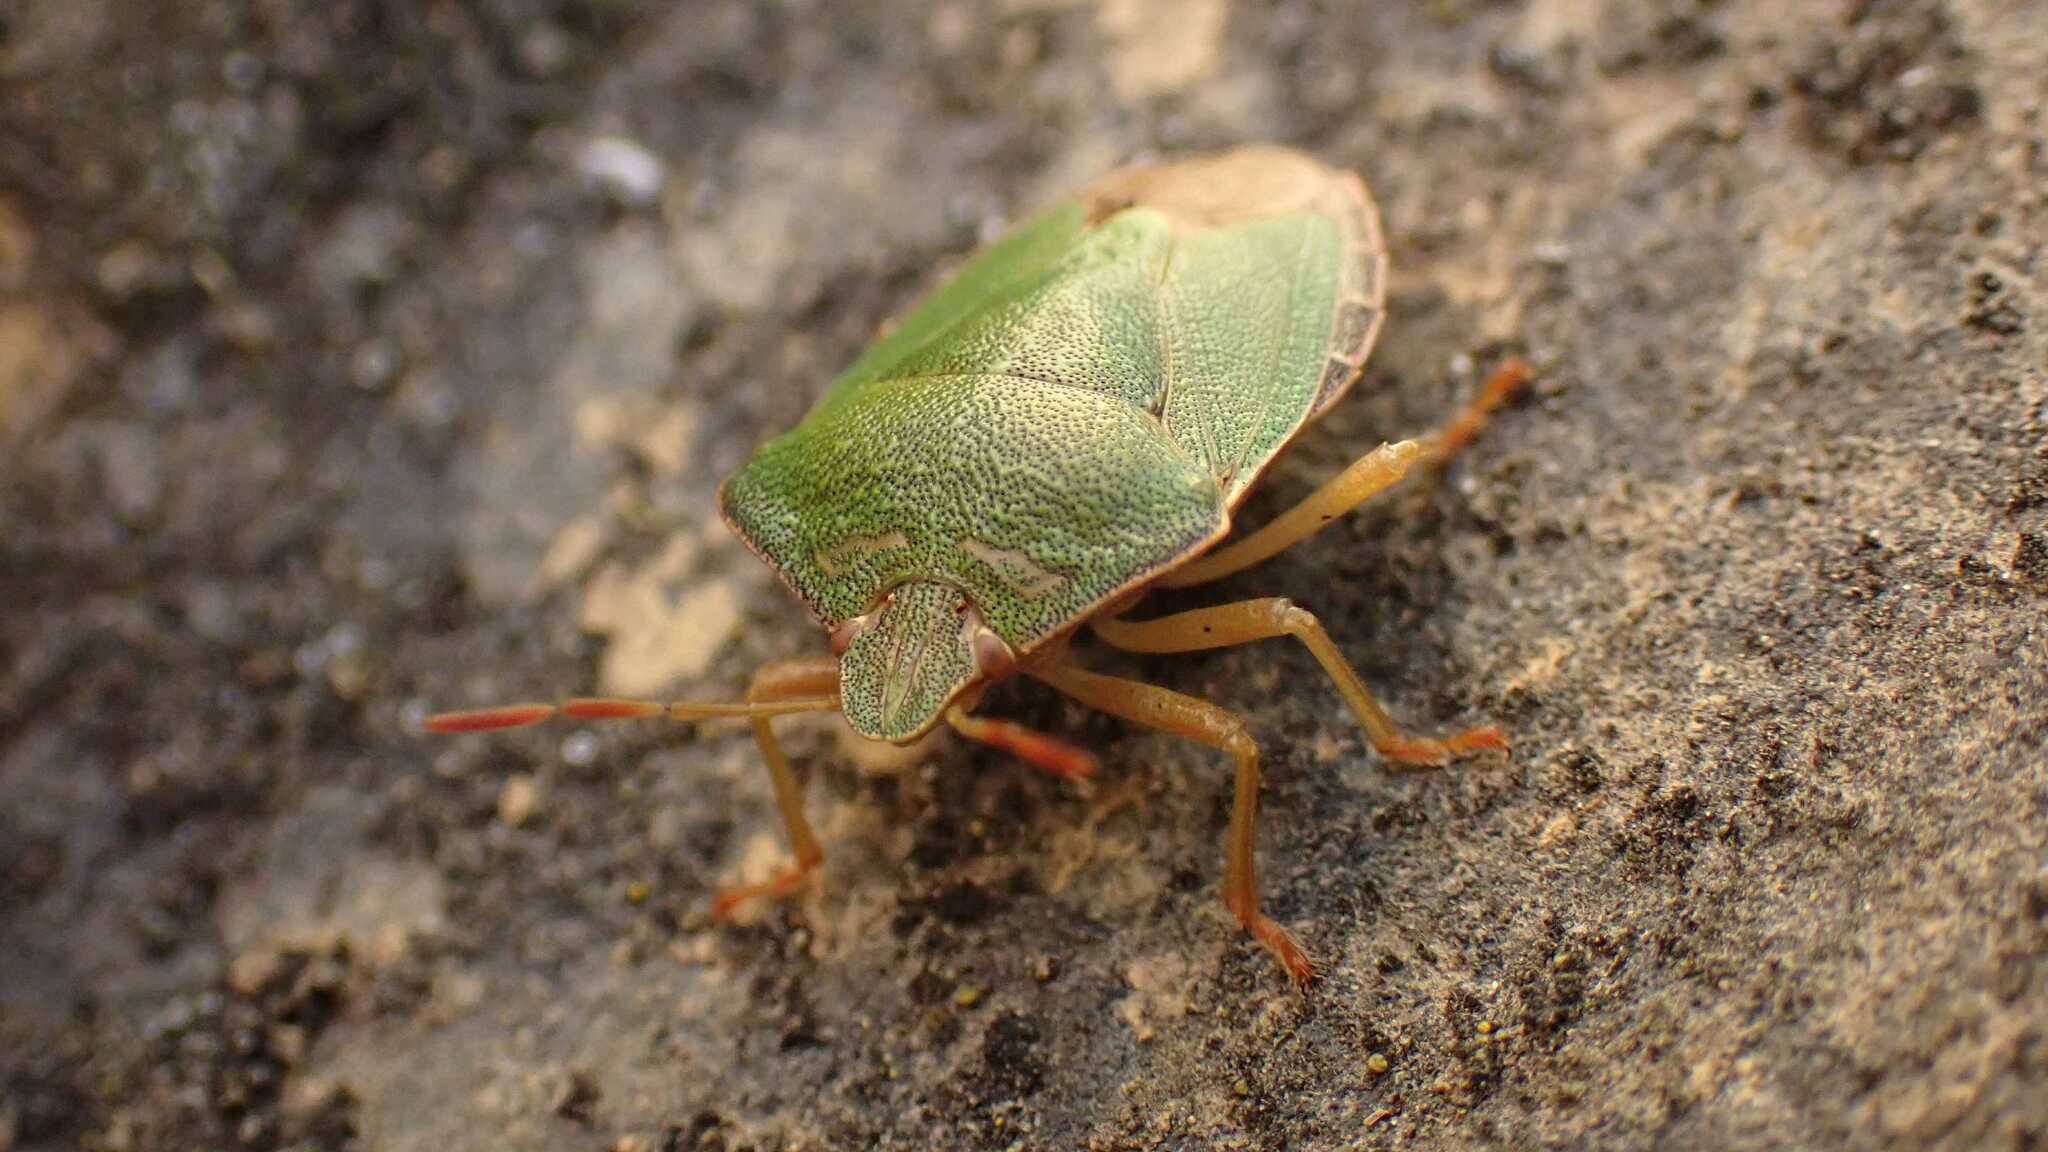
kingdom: Animalia
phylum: Arthropoda
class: Insecta
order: Hemiptera
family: Pentatomidae
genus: Palomena
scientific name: Palomena prasina
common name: Green shieldbug
